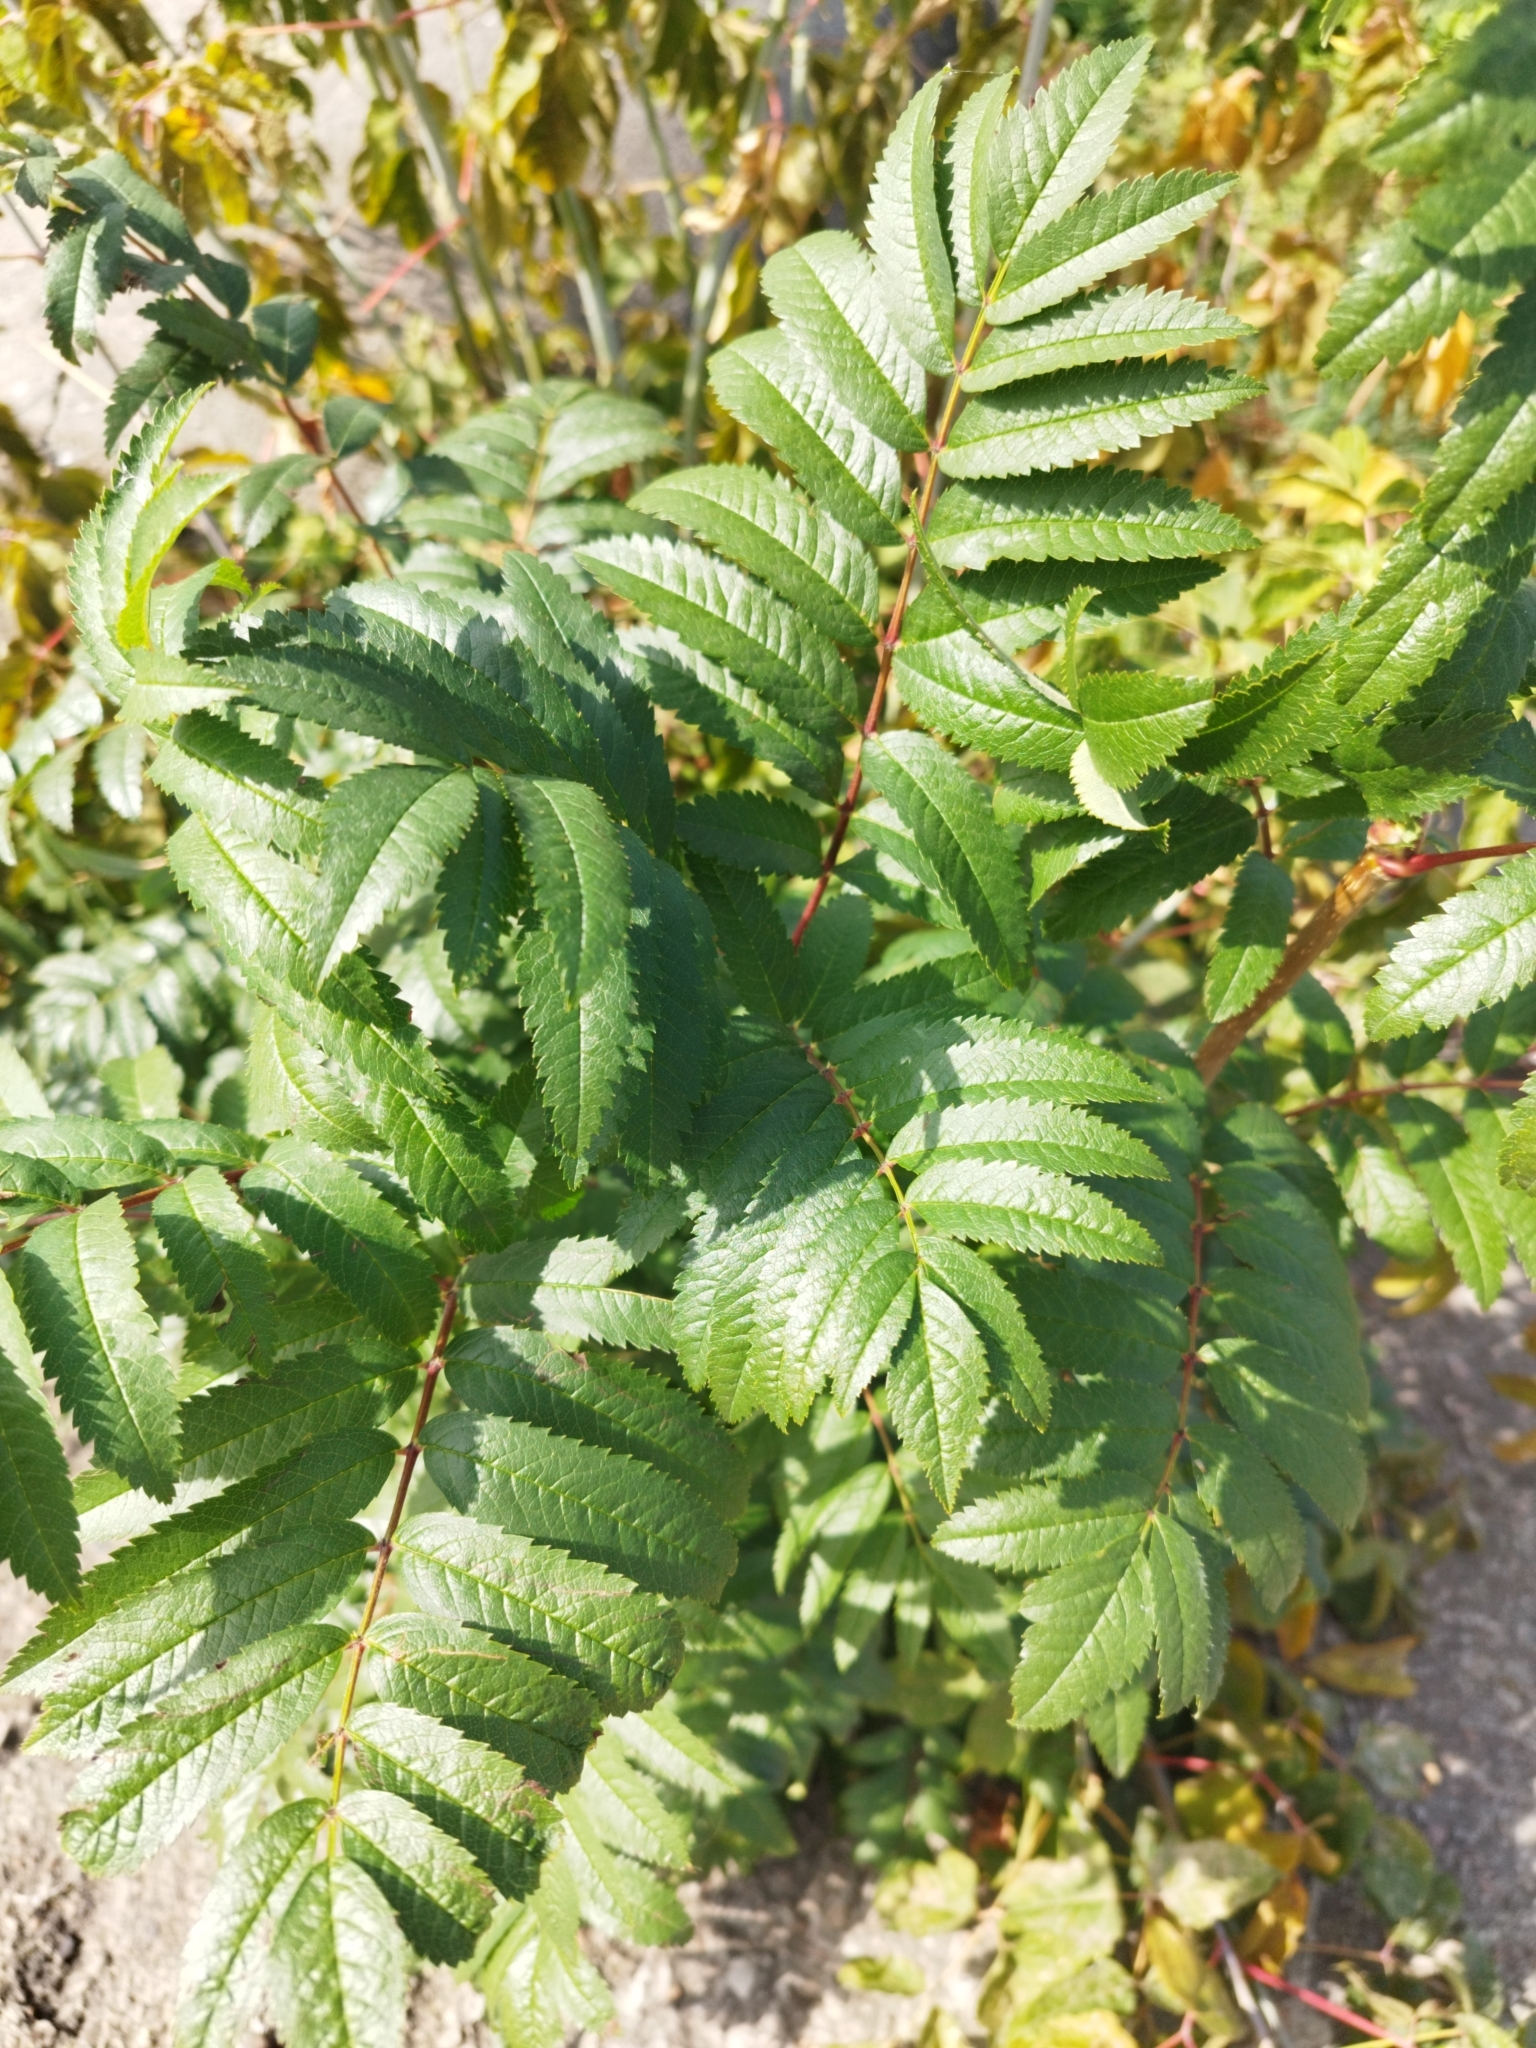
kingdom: Plantae
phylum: Tracheophyta
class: Magnoliopsida
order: Rosales
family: Rosaceae
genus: Sorbus
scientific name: Sorbus aucuparia
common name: Rowan
